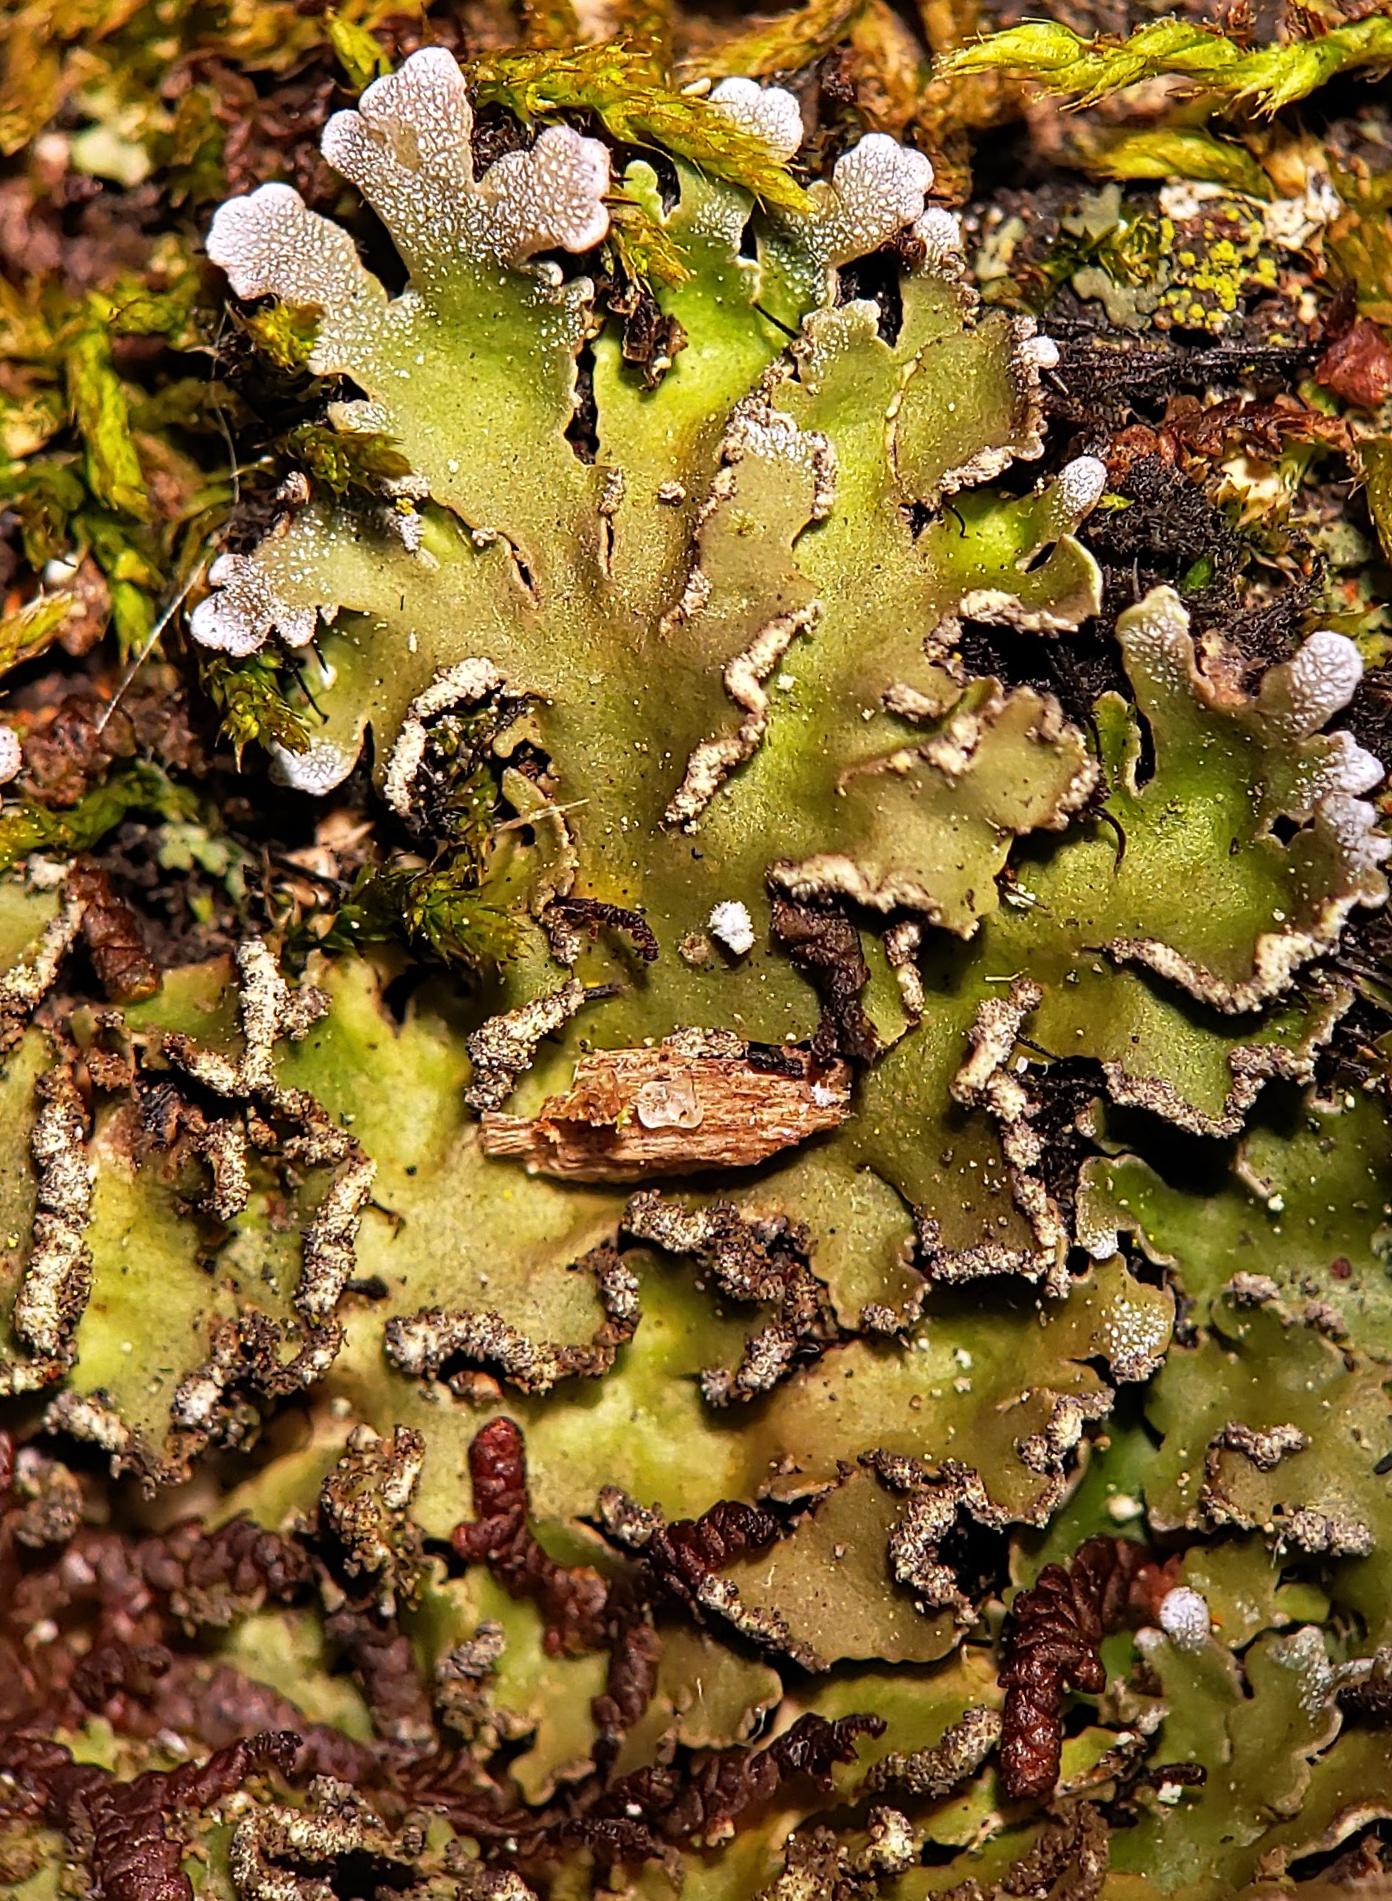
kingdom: Fungi
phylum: Ascomycota
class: Lecanoromycetes
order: Caliciales
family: Physciaceae
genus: Physconia
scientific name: Physconia perisidiosa
